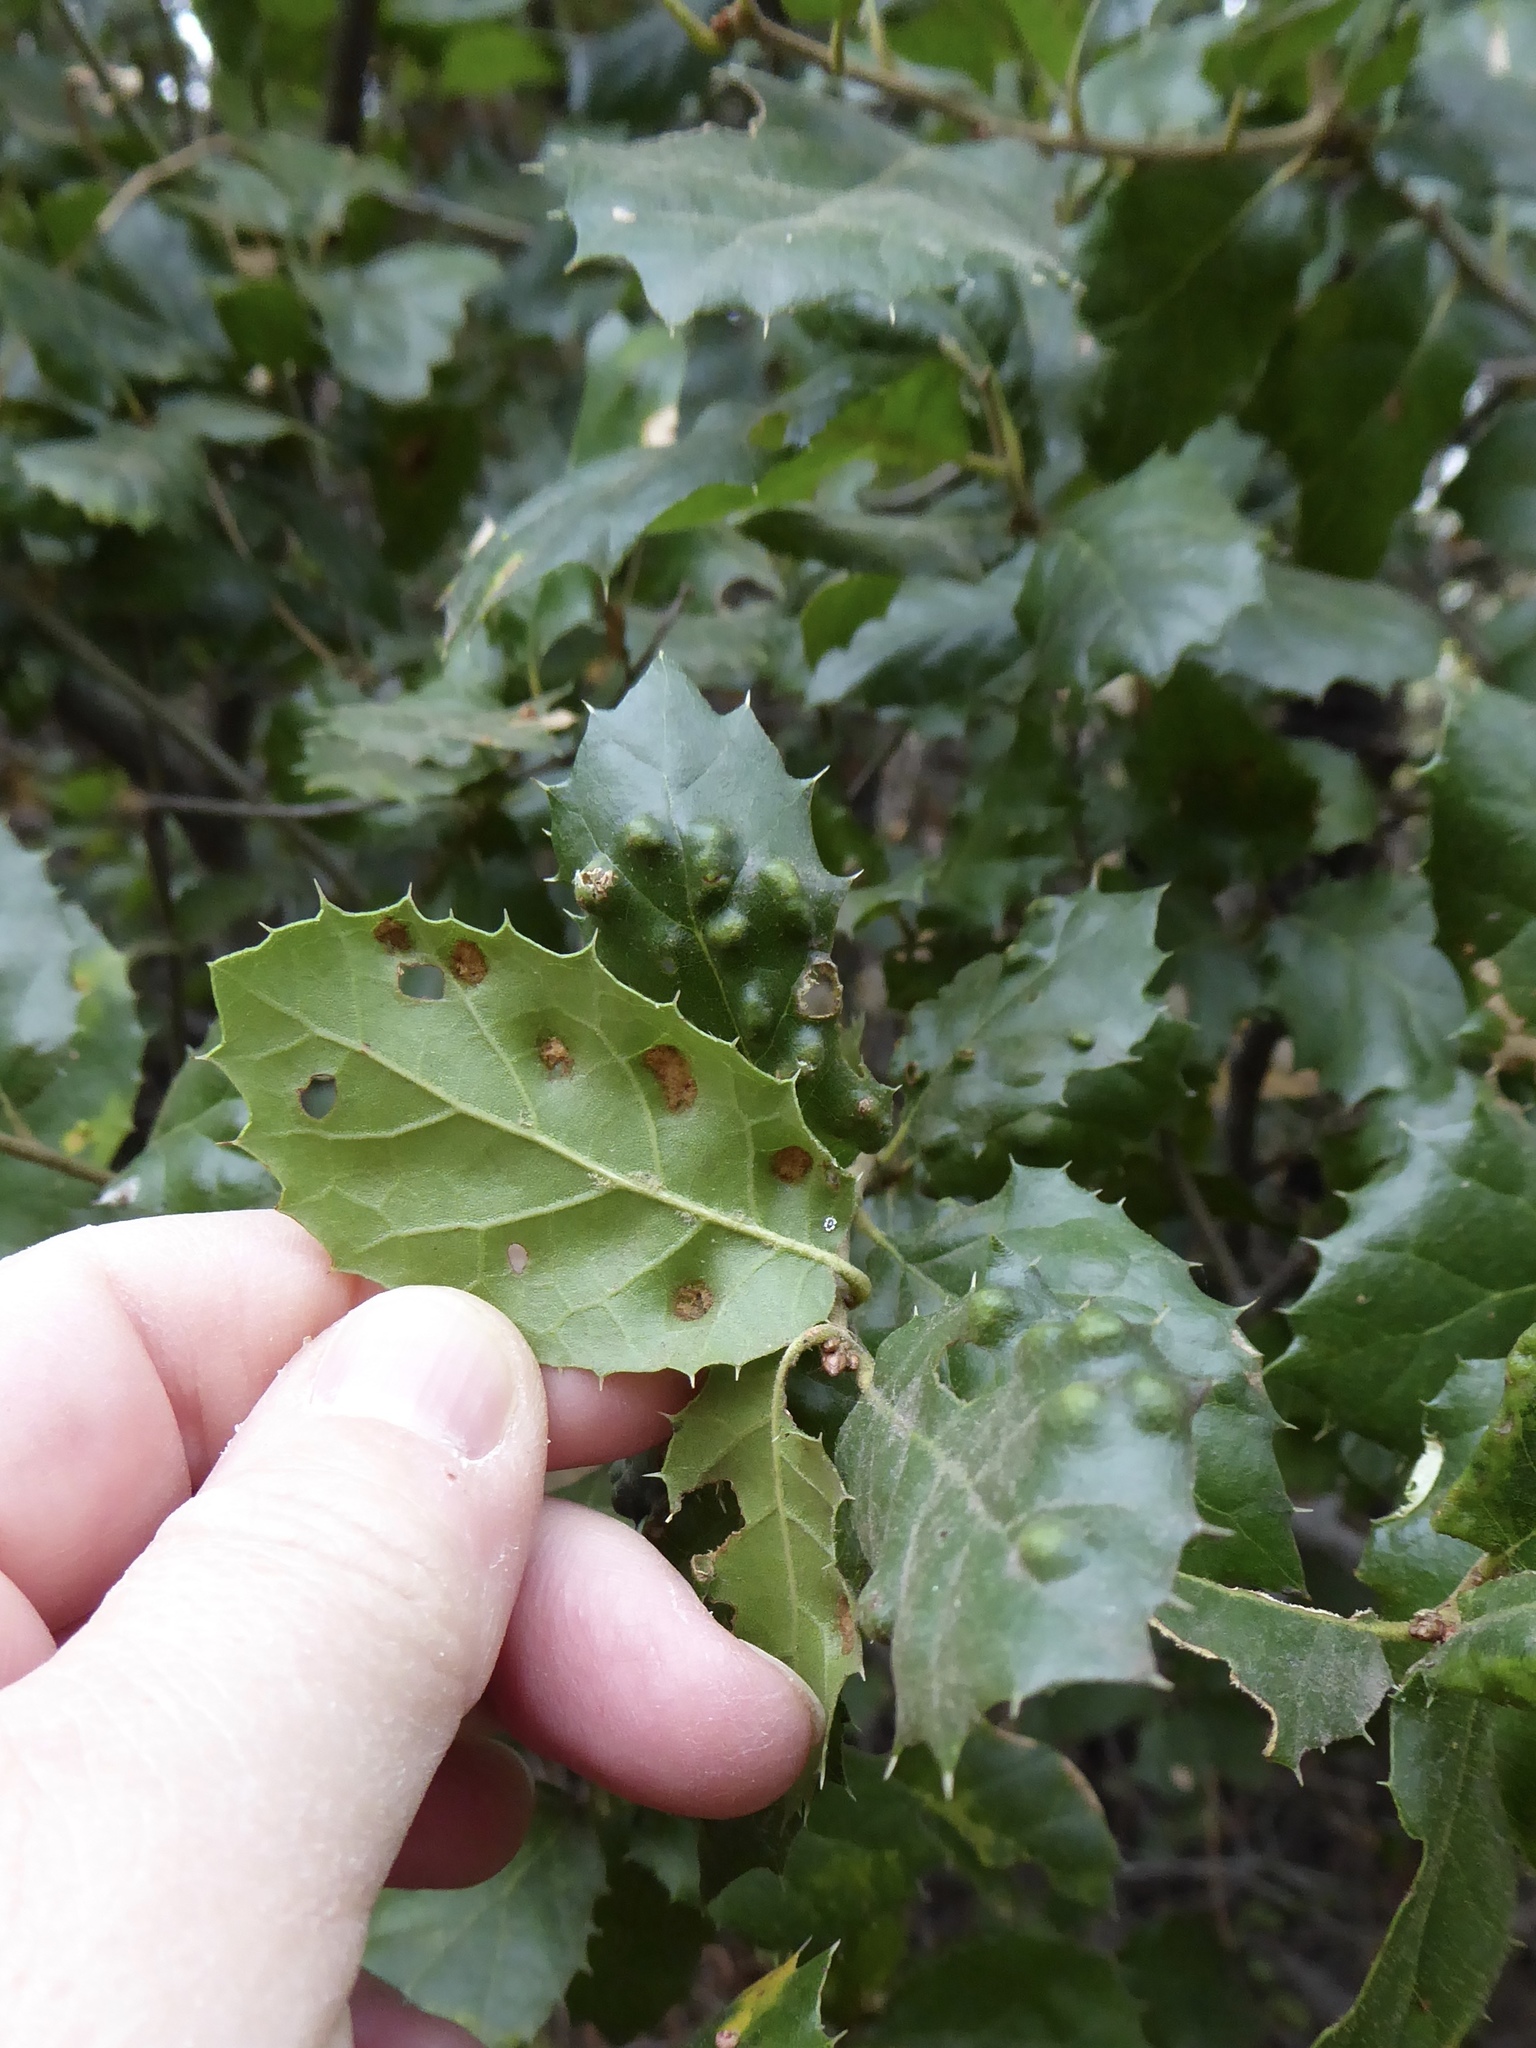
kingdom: Animalia
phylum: Arthropoda
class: Arachnida
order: Trombidiformes
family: Eriophyidae
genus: Aceria
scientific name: Aceria
